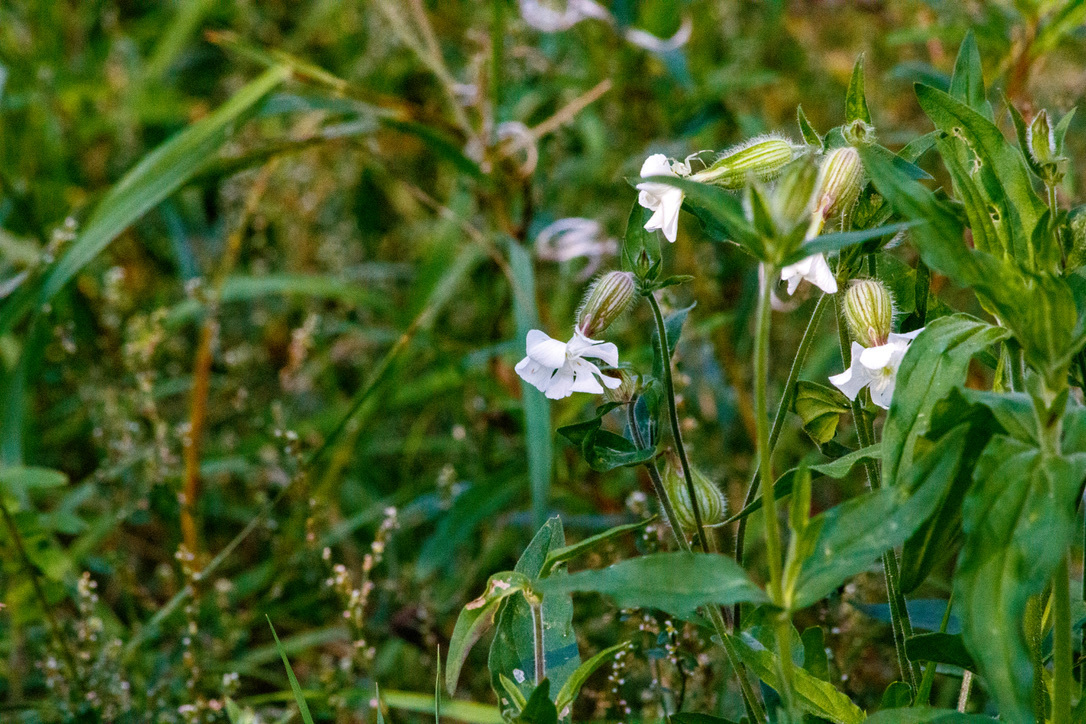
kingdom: Plantae
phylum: Tracheophyta
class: Magnoliopsida
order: Caryophyllales
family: Caryophyllaceae
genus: Silene
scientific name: Silene latifolia
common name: White campion
